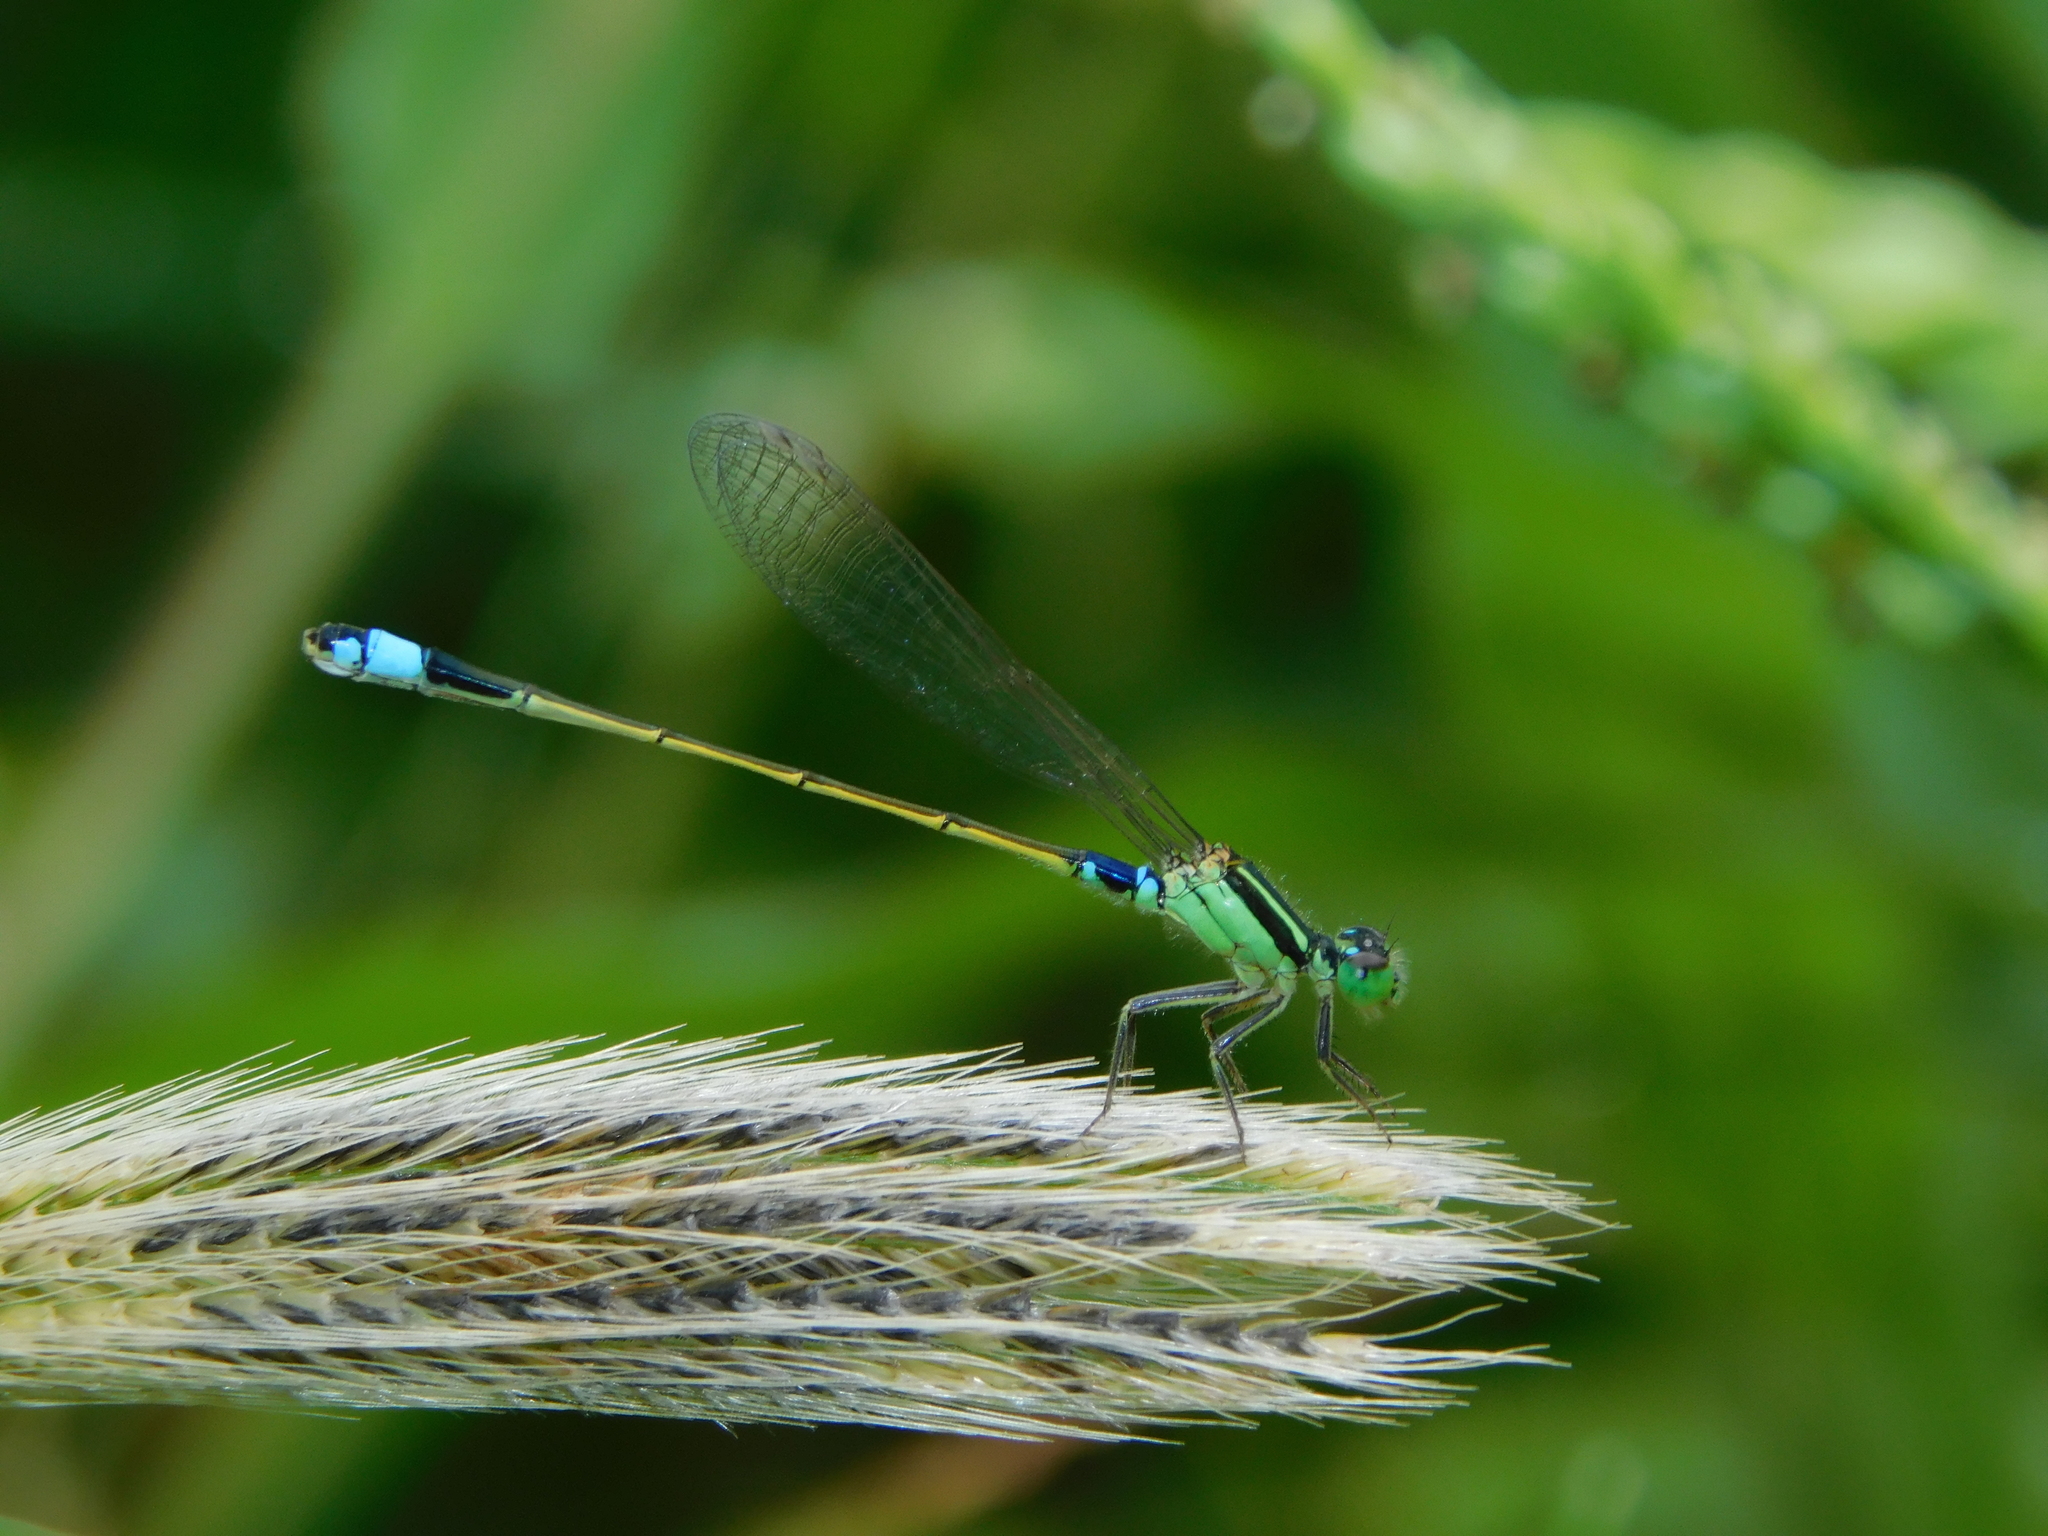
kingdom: Animalia
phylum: Arthropoda
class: Insecta
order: Odonata
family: Coenagrionidae
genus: Ischnura
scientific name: Ischnura senegalensis
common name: Tropical bluetail
